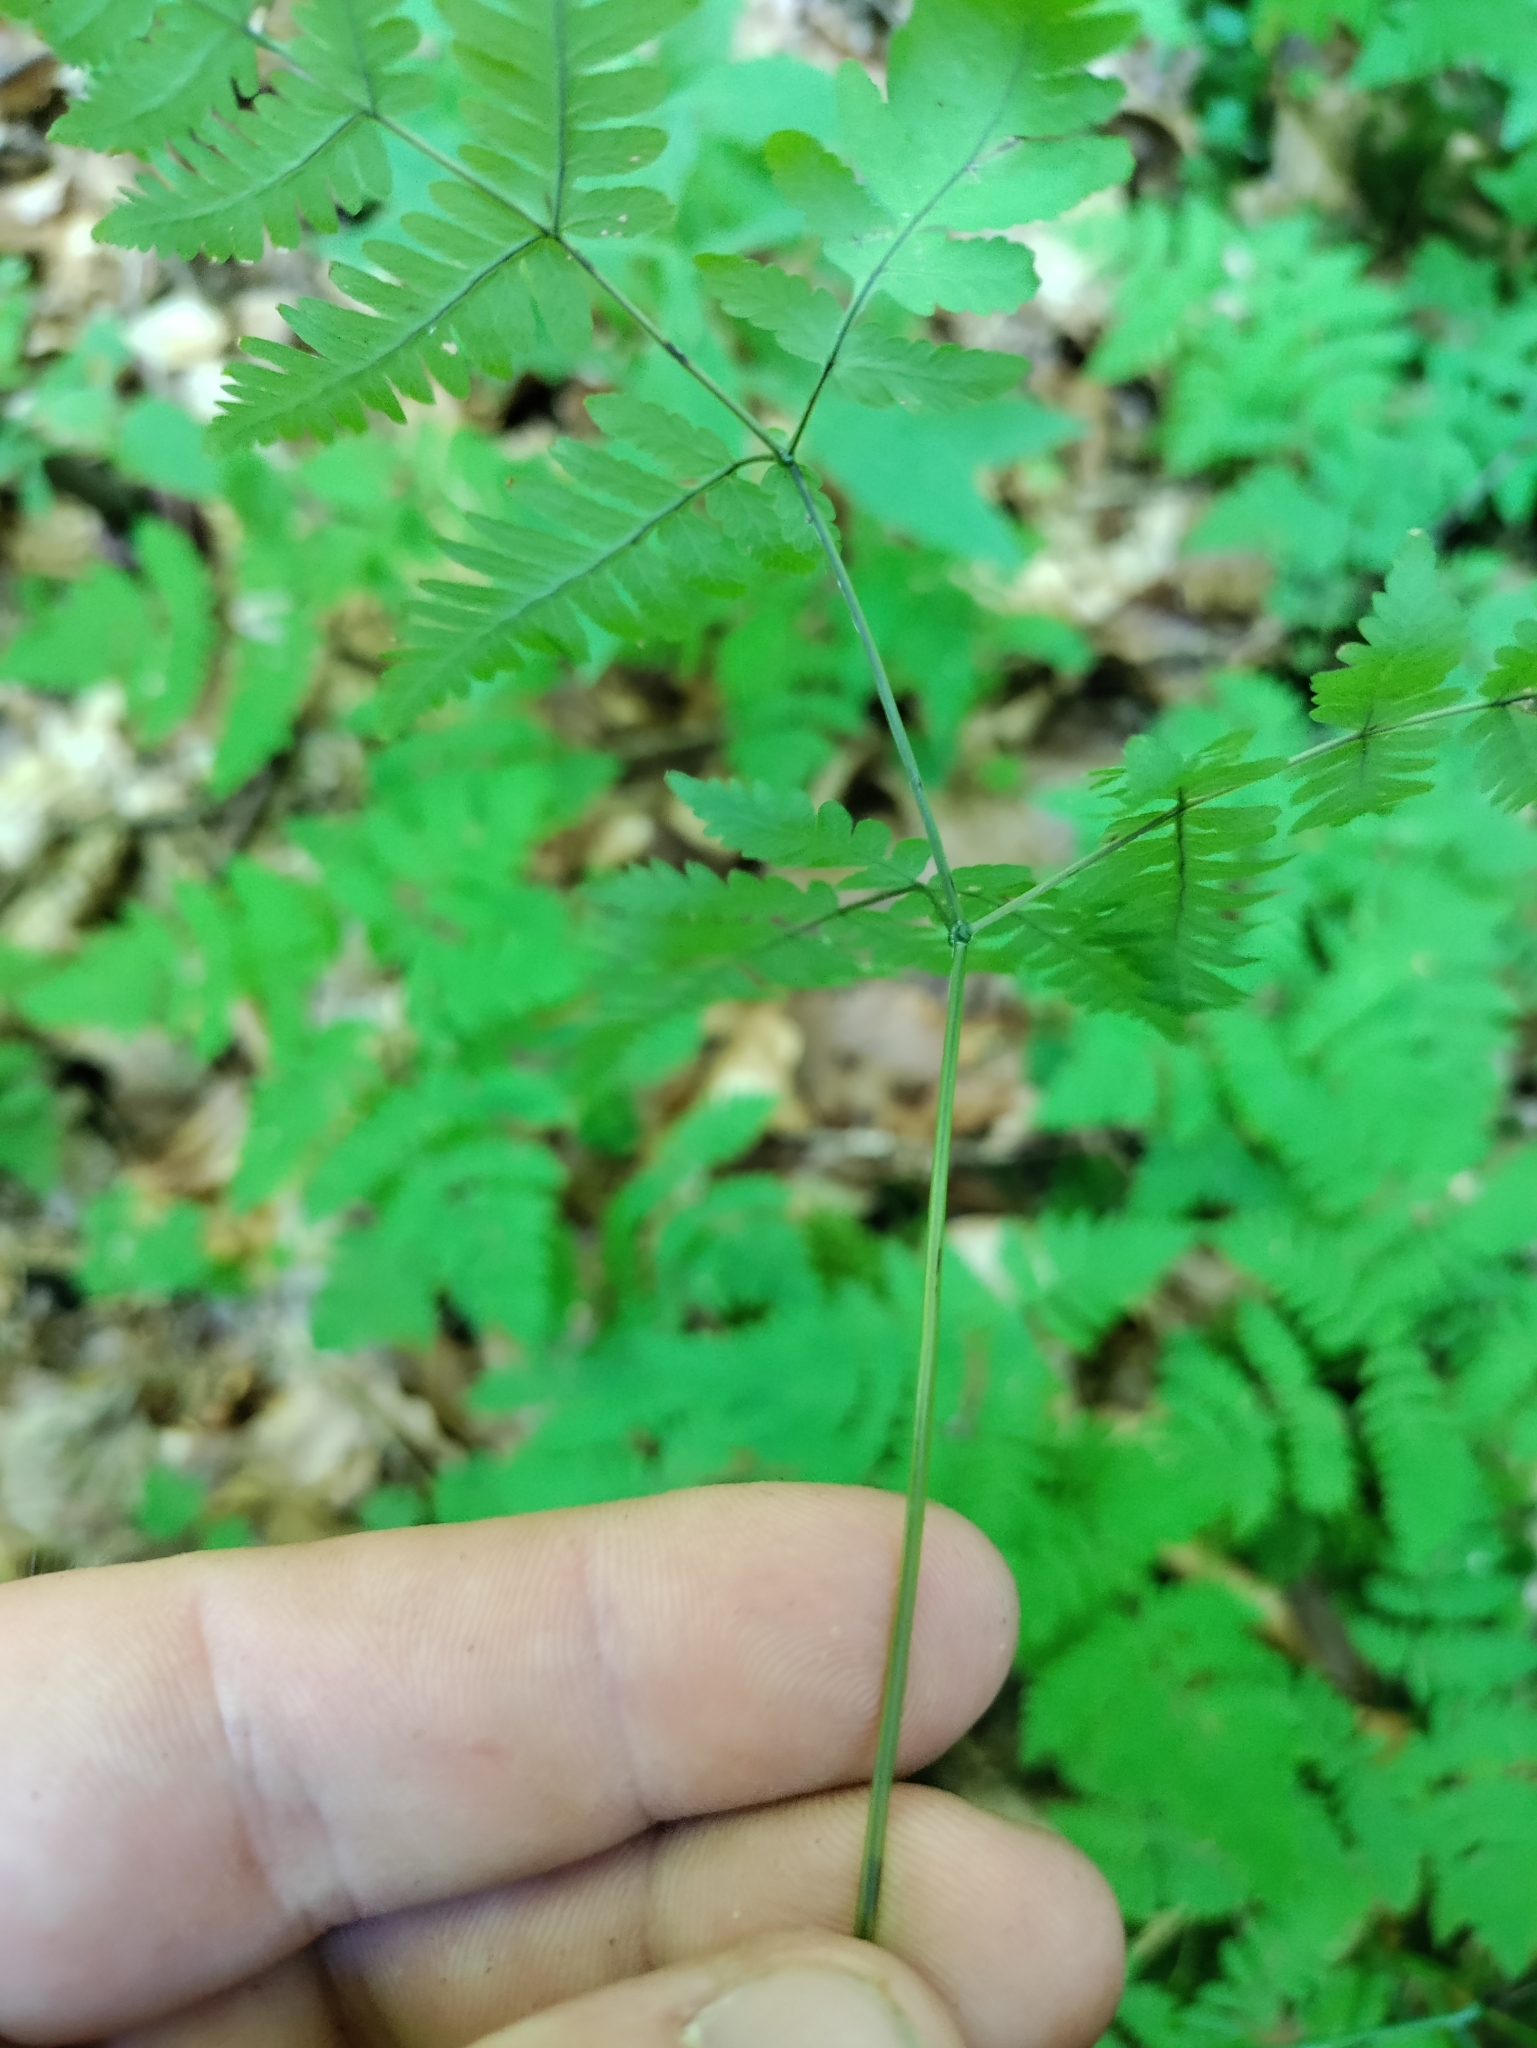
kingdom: Plantae
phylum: Tracheophyta
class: Polypodiopsida
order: Polypodiales
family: Cystopteridaceae
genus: Gymnocarpium
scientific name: Gymnocarpium dryopteris
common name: Oak fern
